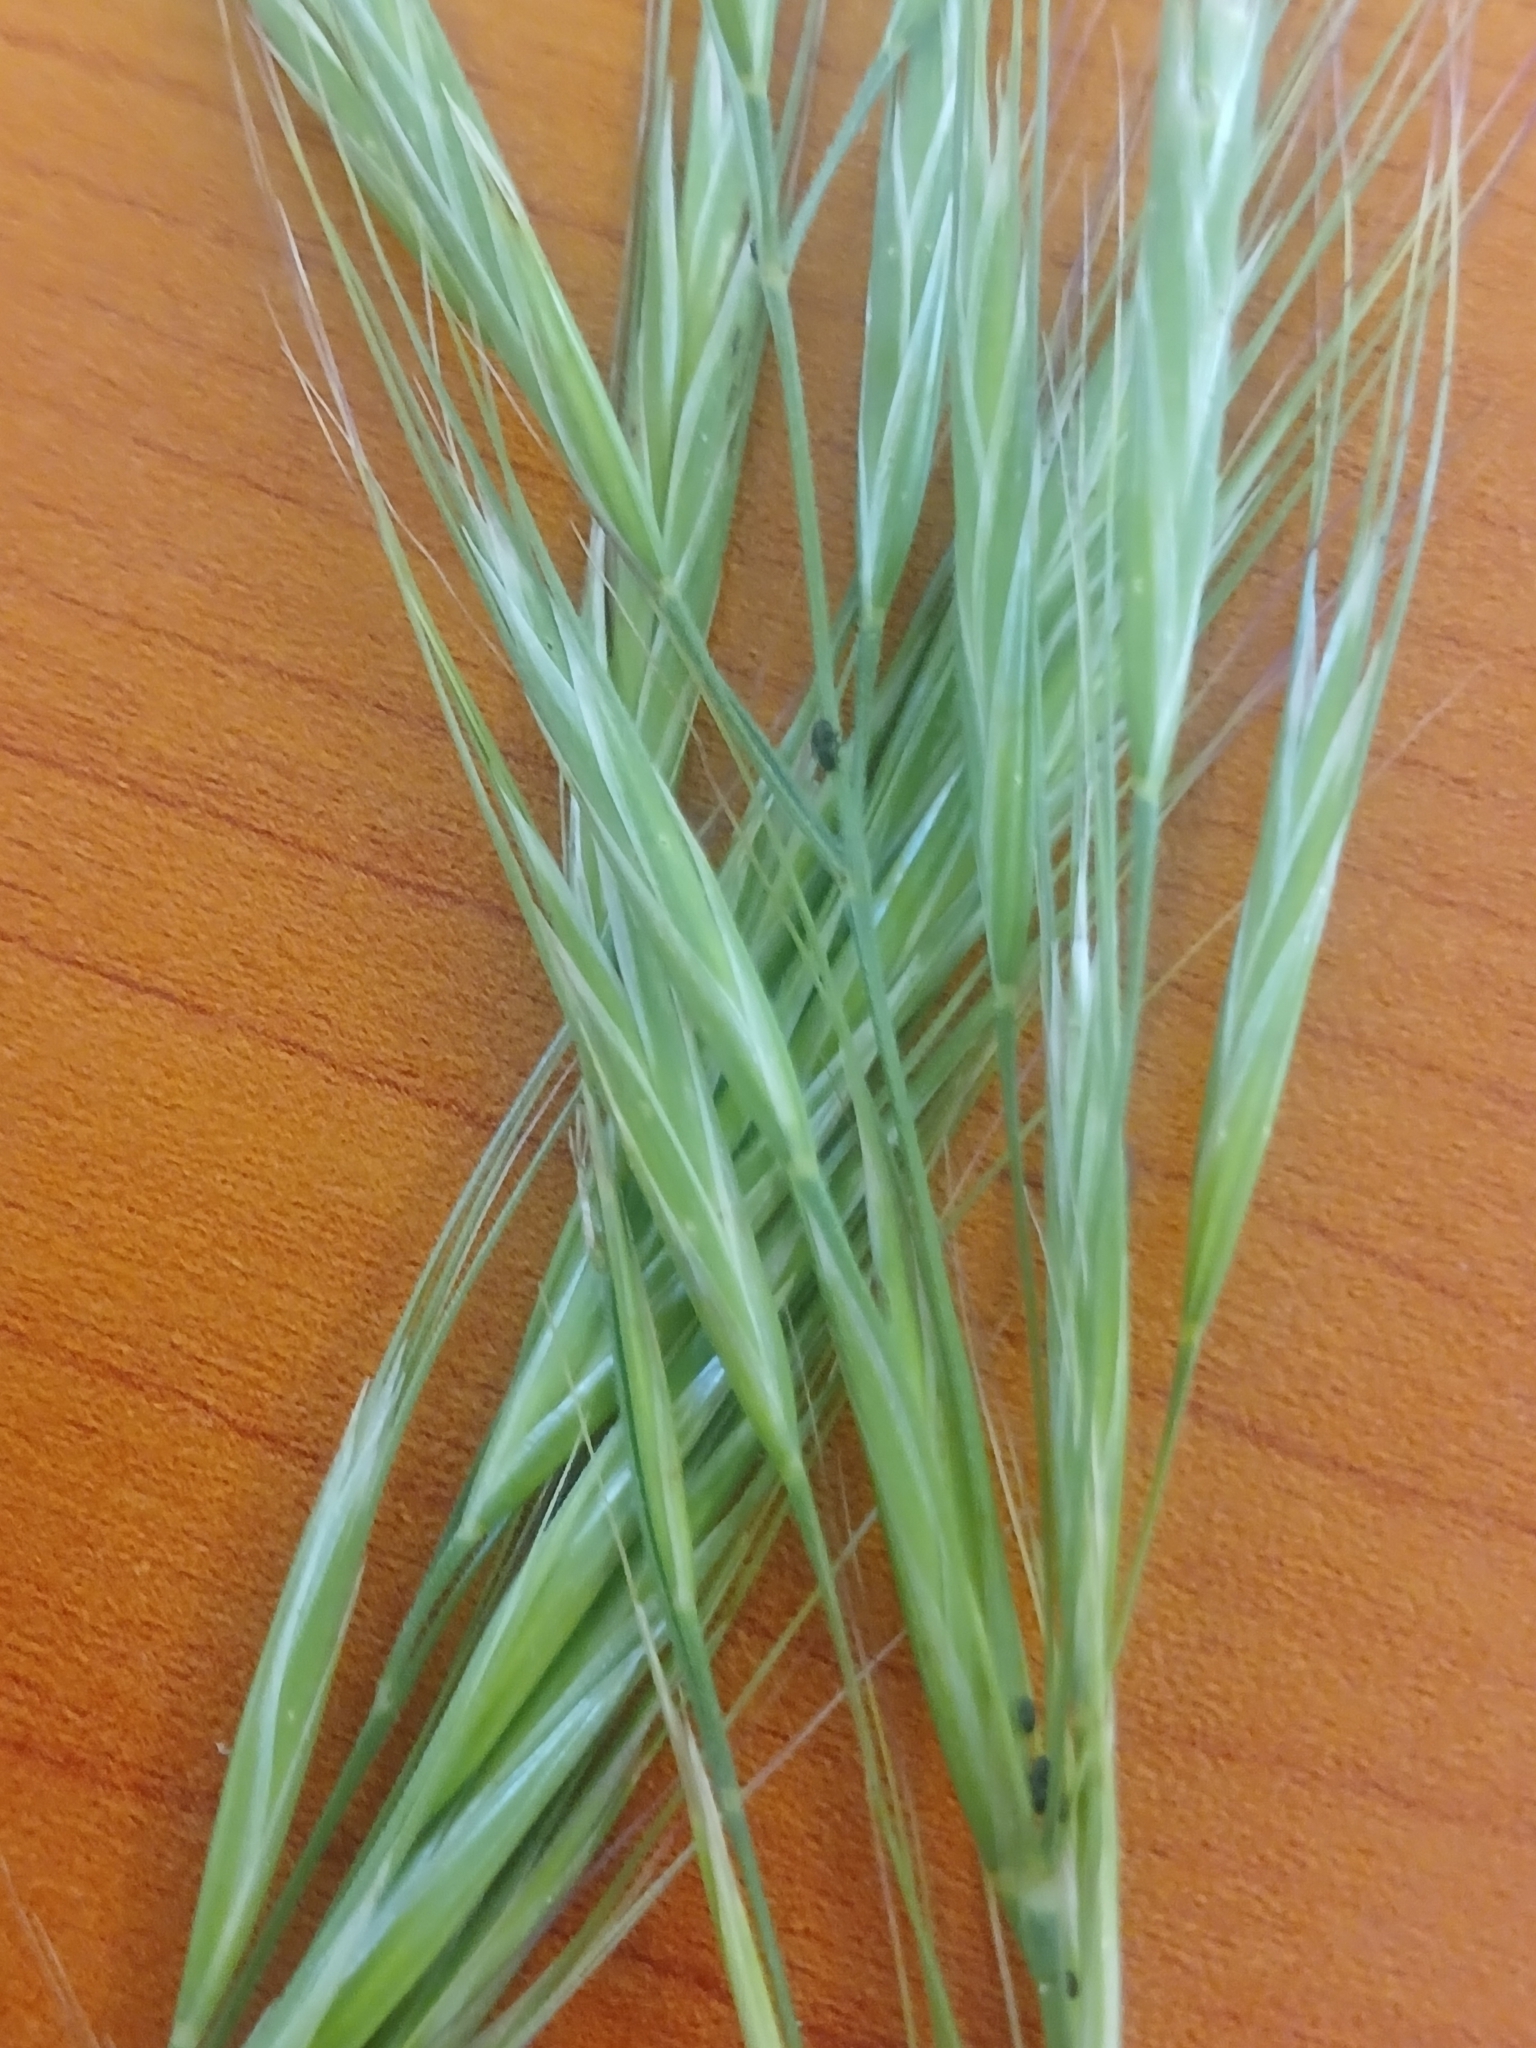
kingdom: Plantae
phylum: Tracheophyta
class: Liliopsida
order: Poales
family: Poaceae
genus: Bromus
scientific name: Bromus diandrus
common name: Ripgut brome
